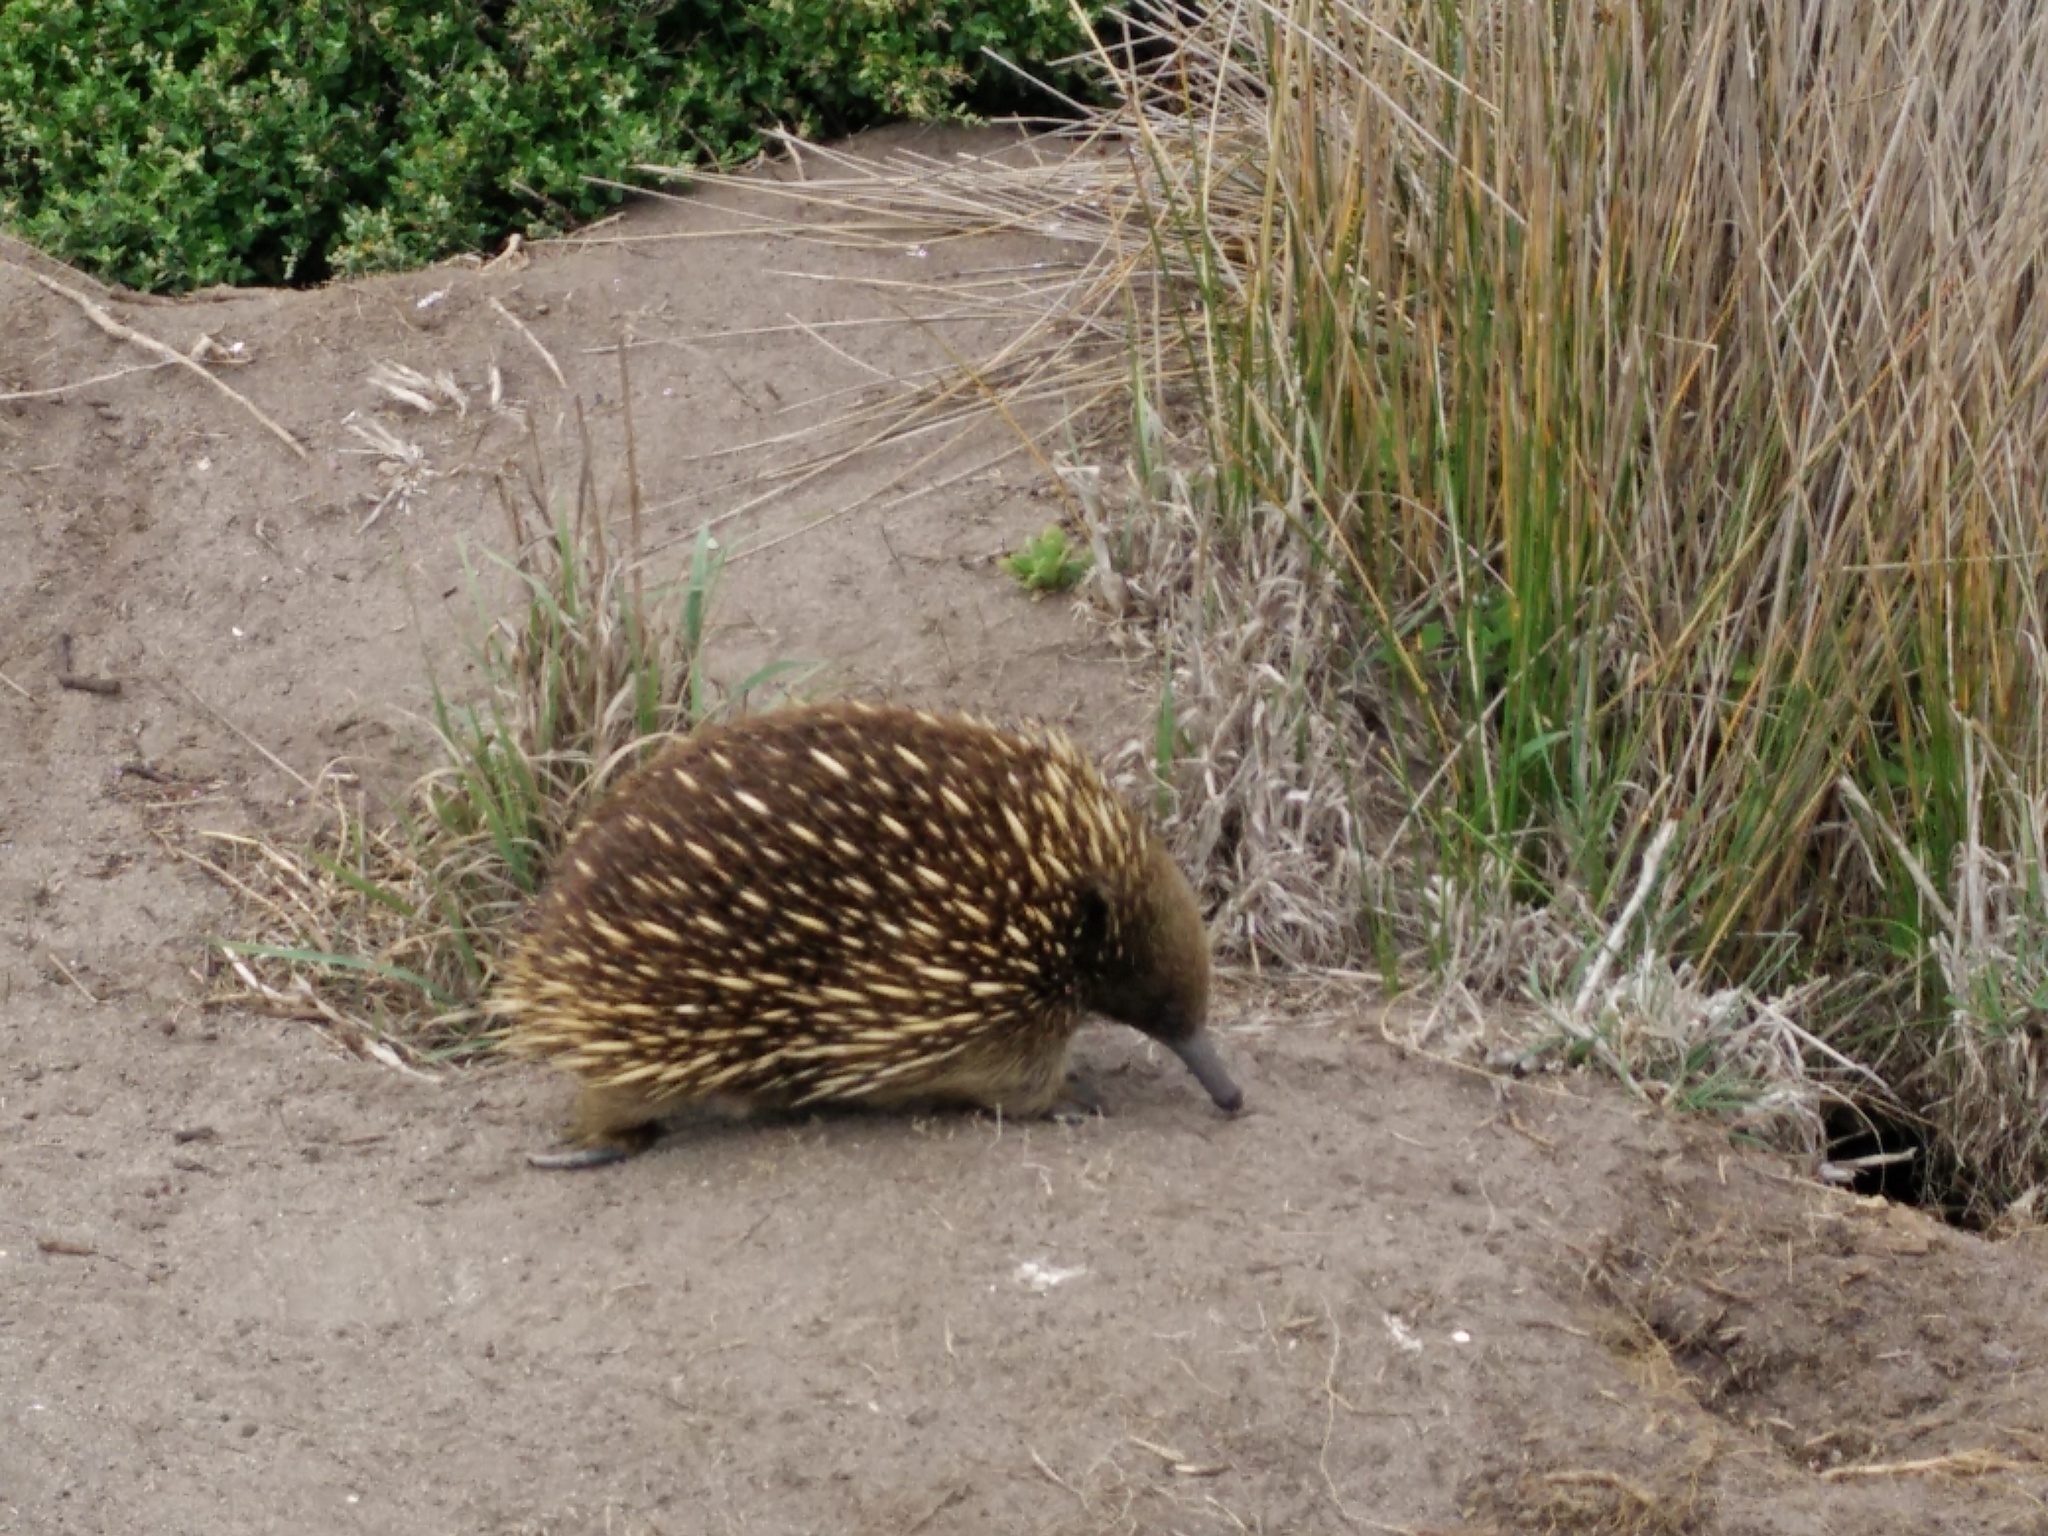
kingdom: Animalia
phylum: Chordata
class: Mammalia
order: Monotremata
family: Tachyglossidae
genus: Tachyglossus
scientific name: Tachyglossus aculeatus
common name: Short-beaked echidna
